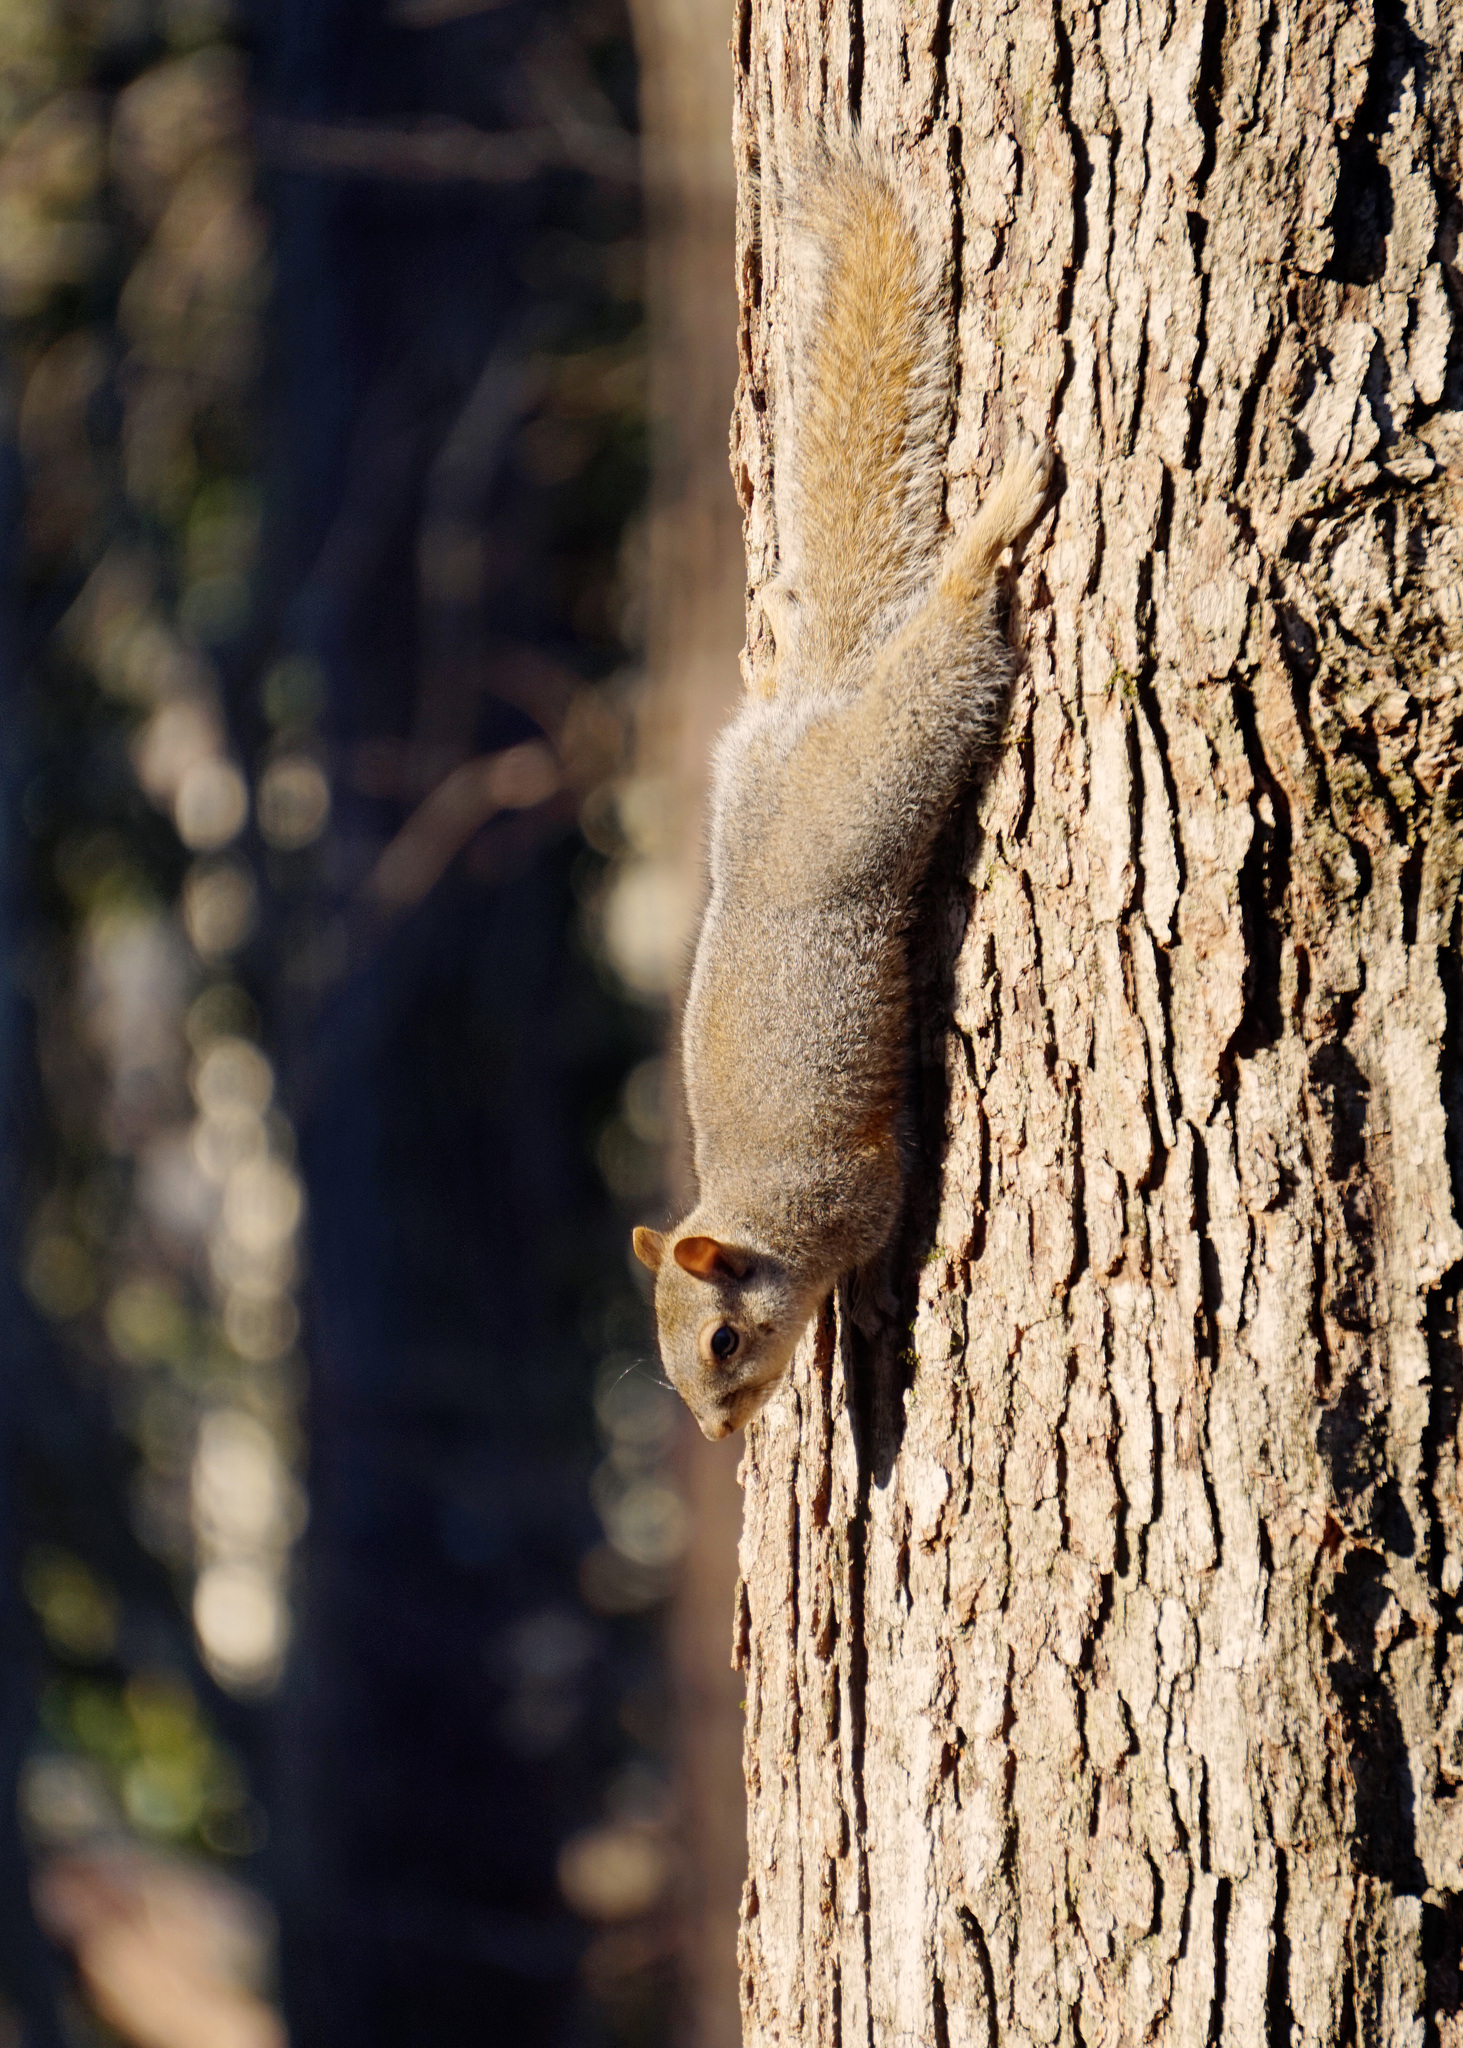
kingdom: Animalia
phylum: Chordata
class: Mammalia
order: Rodentia
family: Sciuridae
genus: Sciurus
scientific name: Sciurus carolinensis
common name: Eastern gray squirrel
